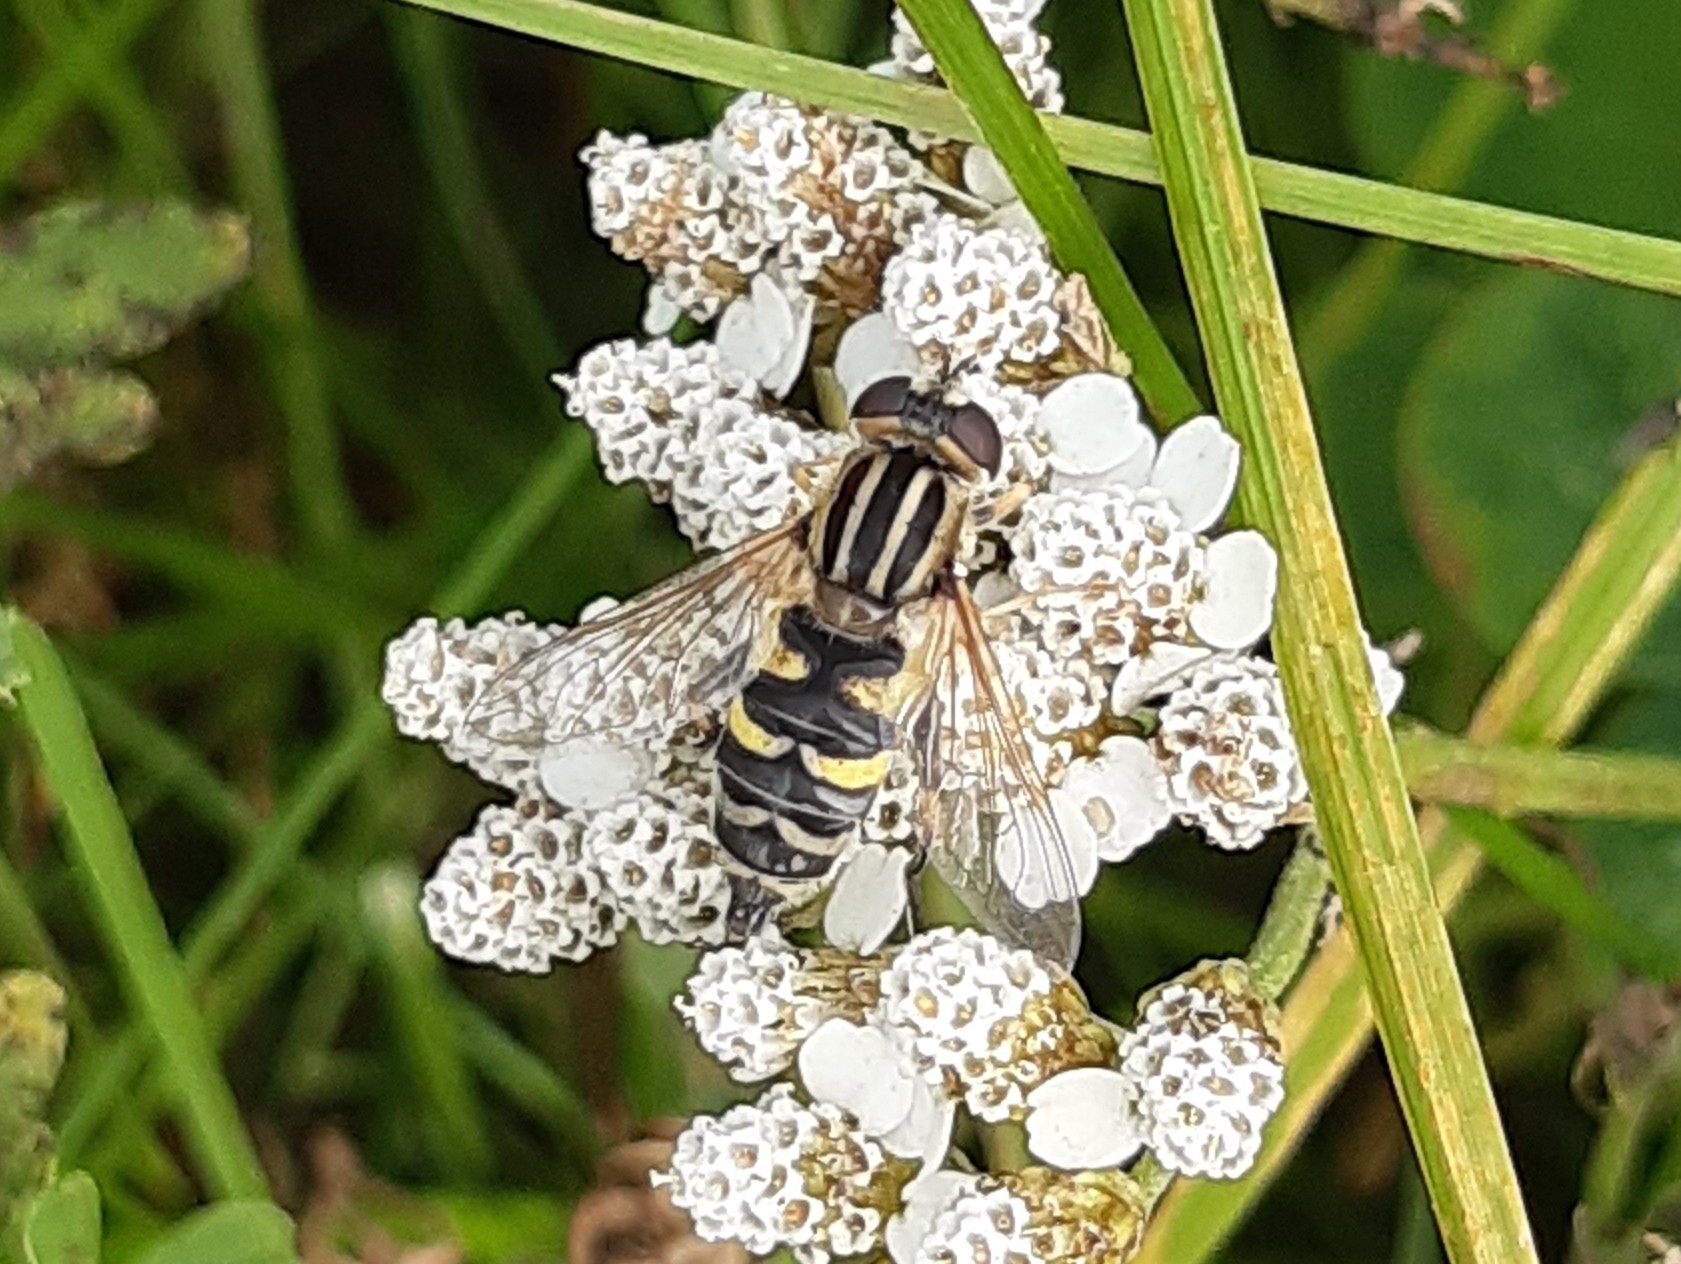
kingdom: Animalia
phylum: Arthropoda
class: Insecta
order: Diptera
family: Syrphidae
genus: Helophilus
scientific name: Helophilus trivittatus
